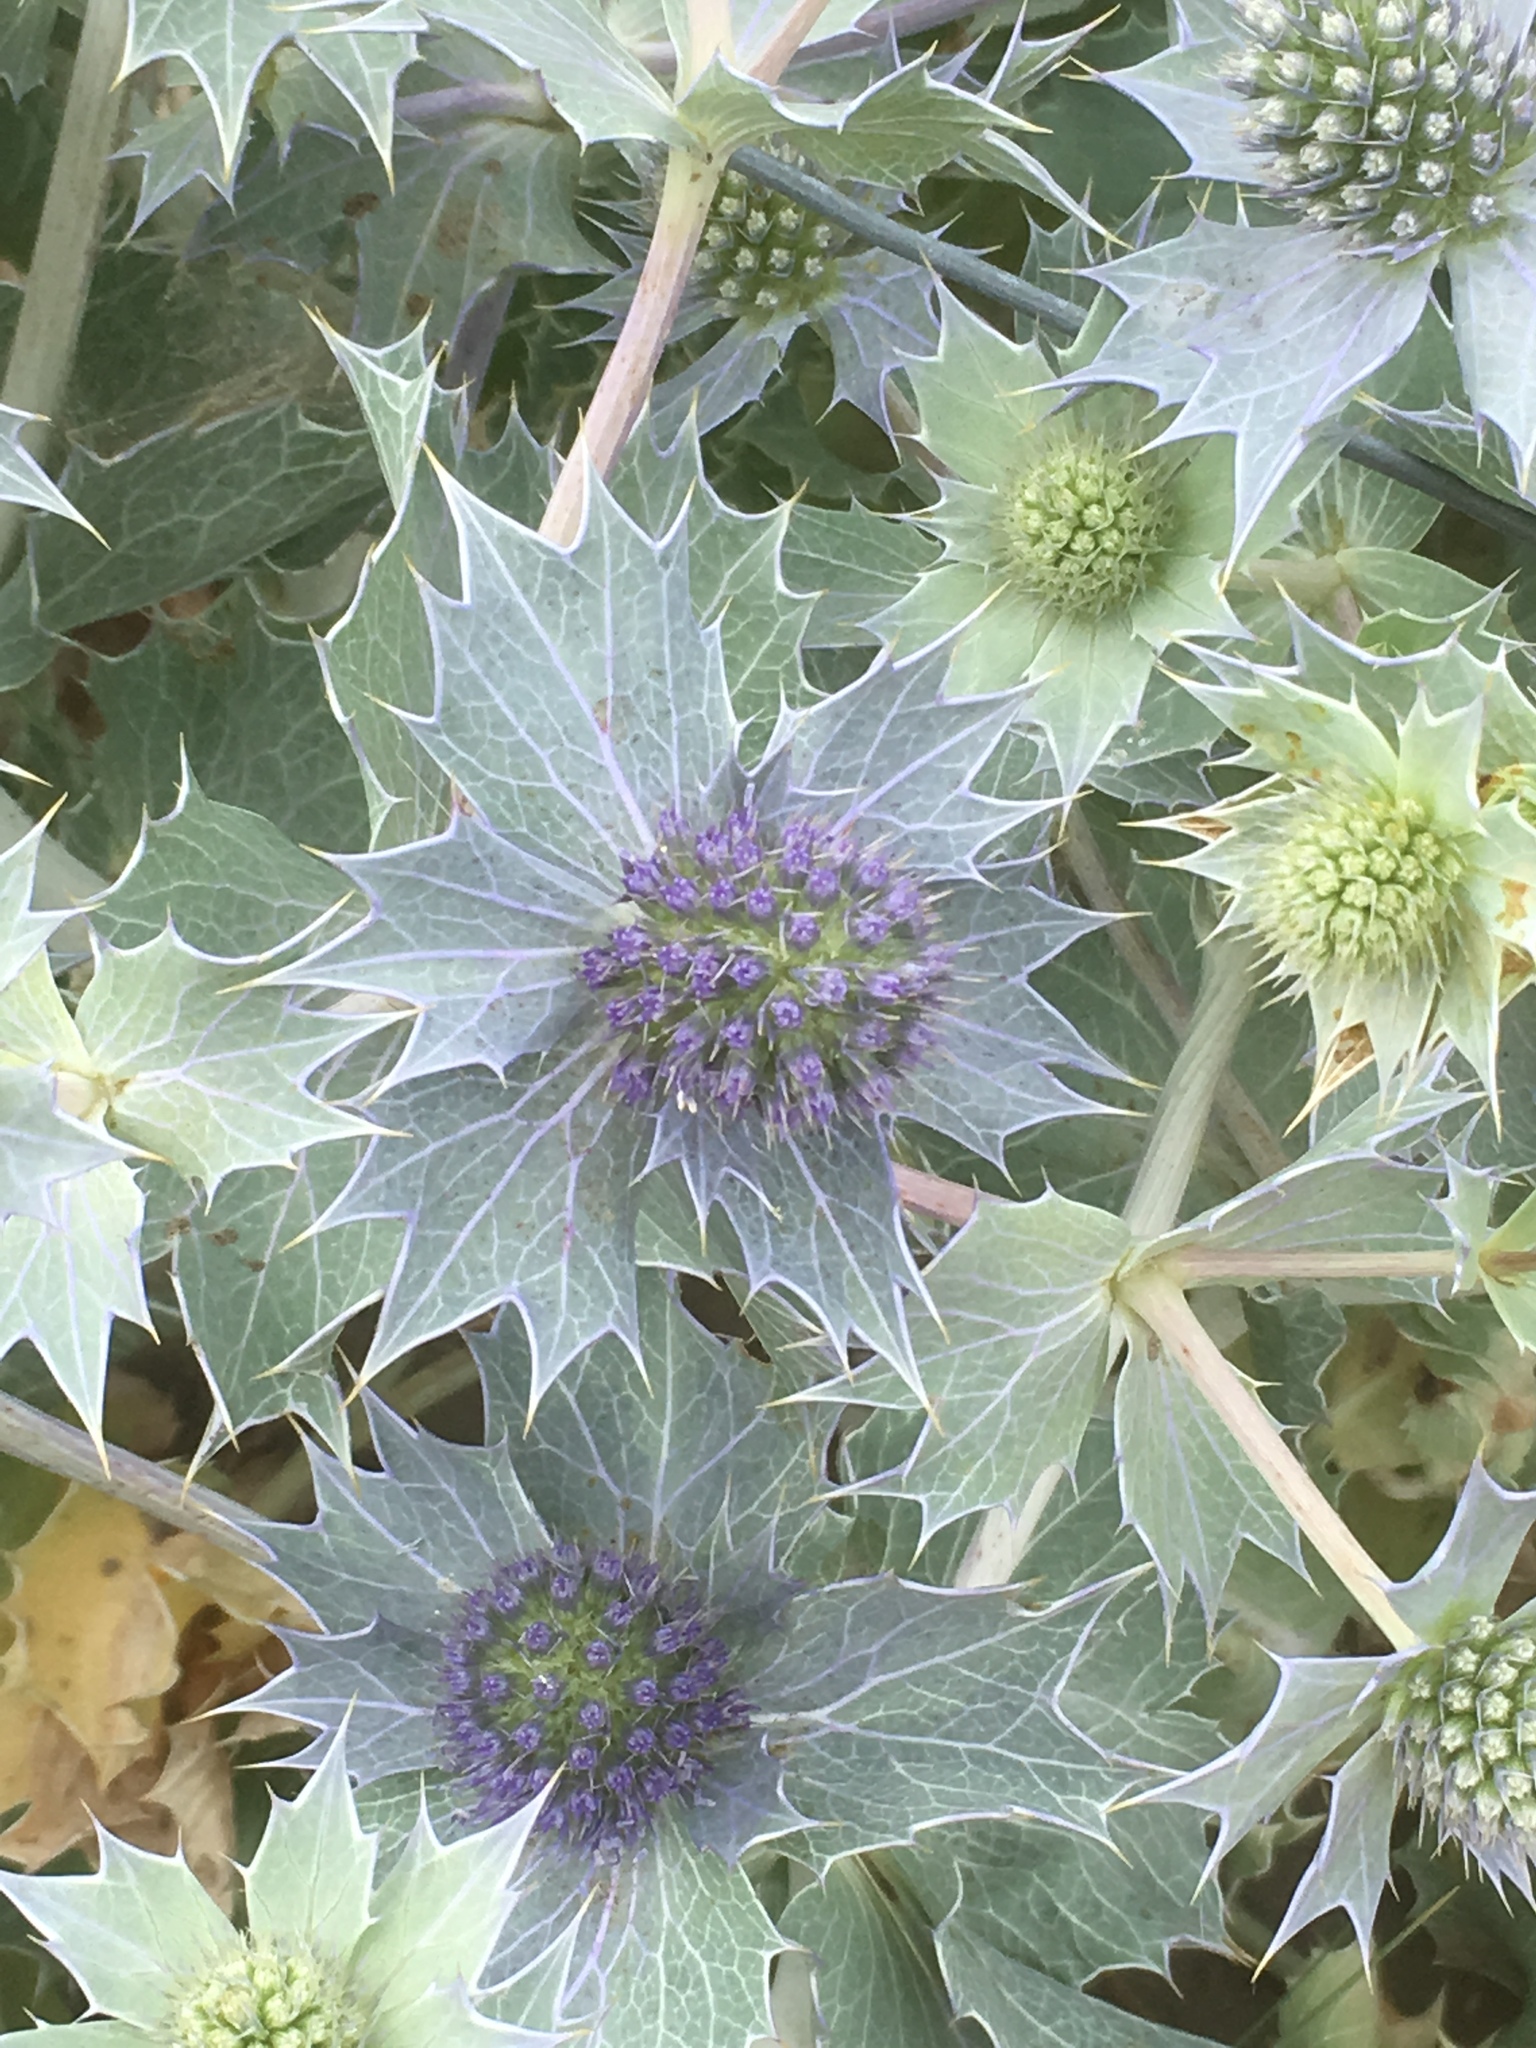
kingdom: Plantae
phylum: Tracheophyta
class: Magnoliopsida
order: Apiales
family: Apiaceae
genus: Eryngium
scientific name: Eryngium maritimum
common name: Sea-holly
